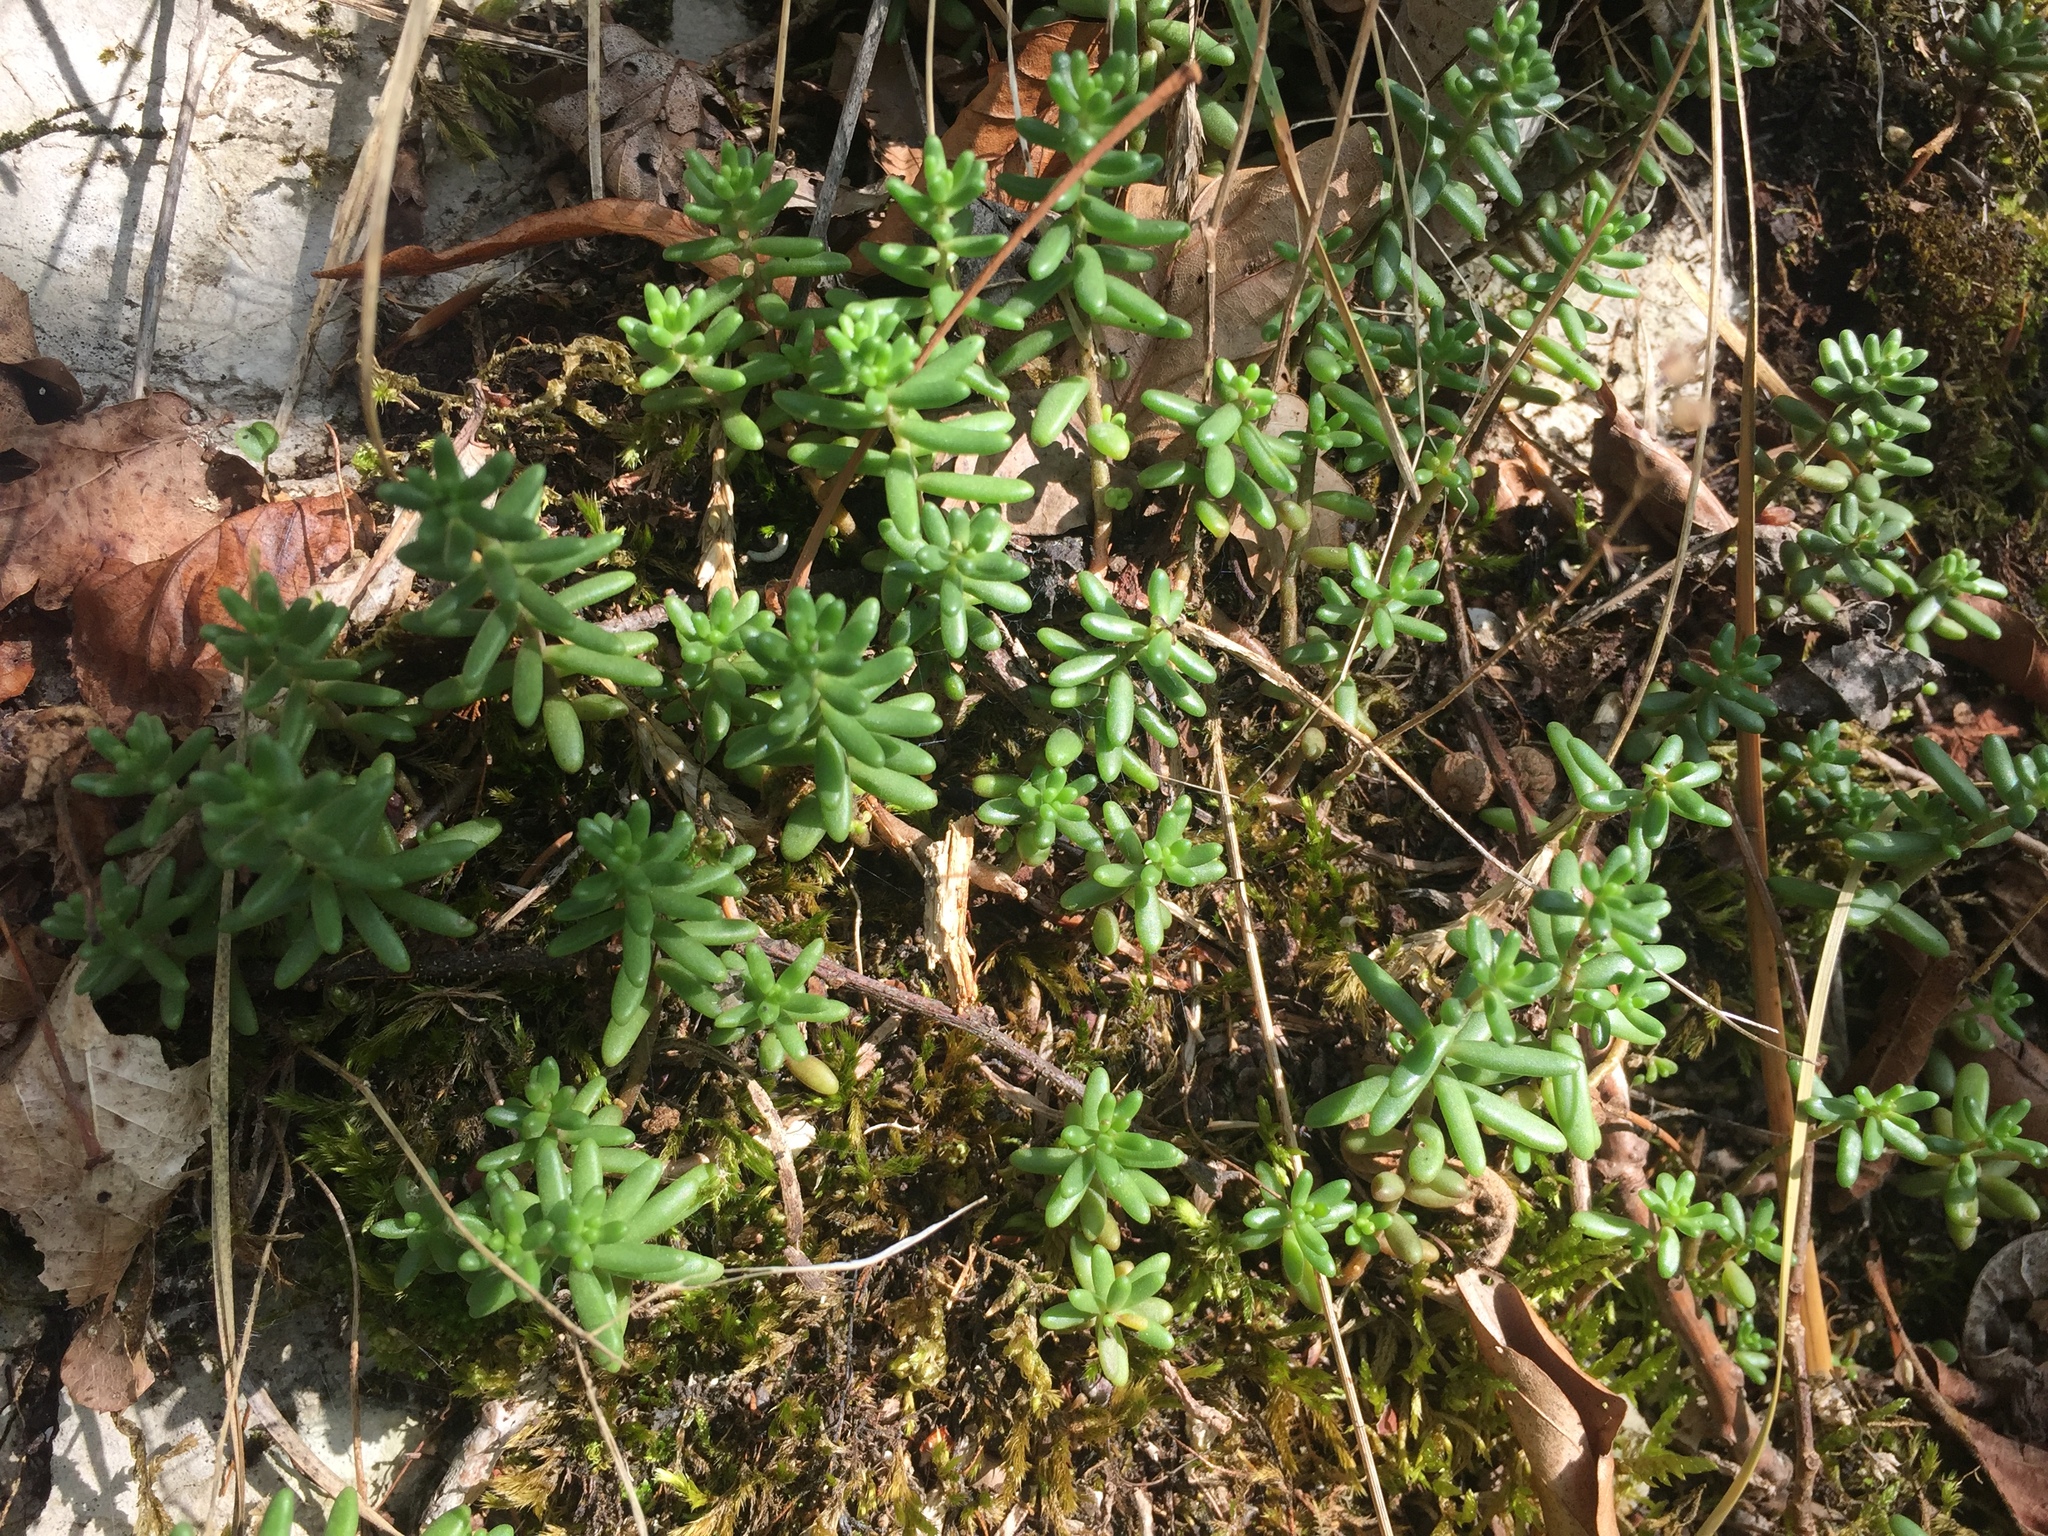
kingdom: Plantae
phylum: Tracheophyta
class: Magnoliopsida
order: Saxifragales
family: Crassulaceae
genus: Sedum
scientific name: Sedum album
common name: White stonecrop
